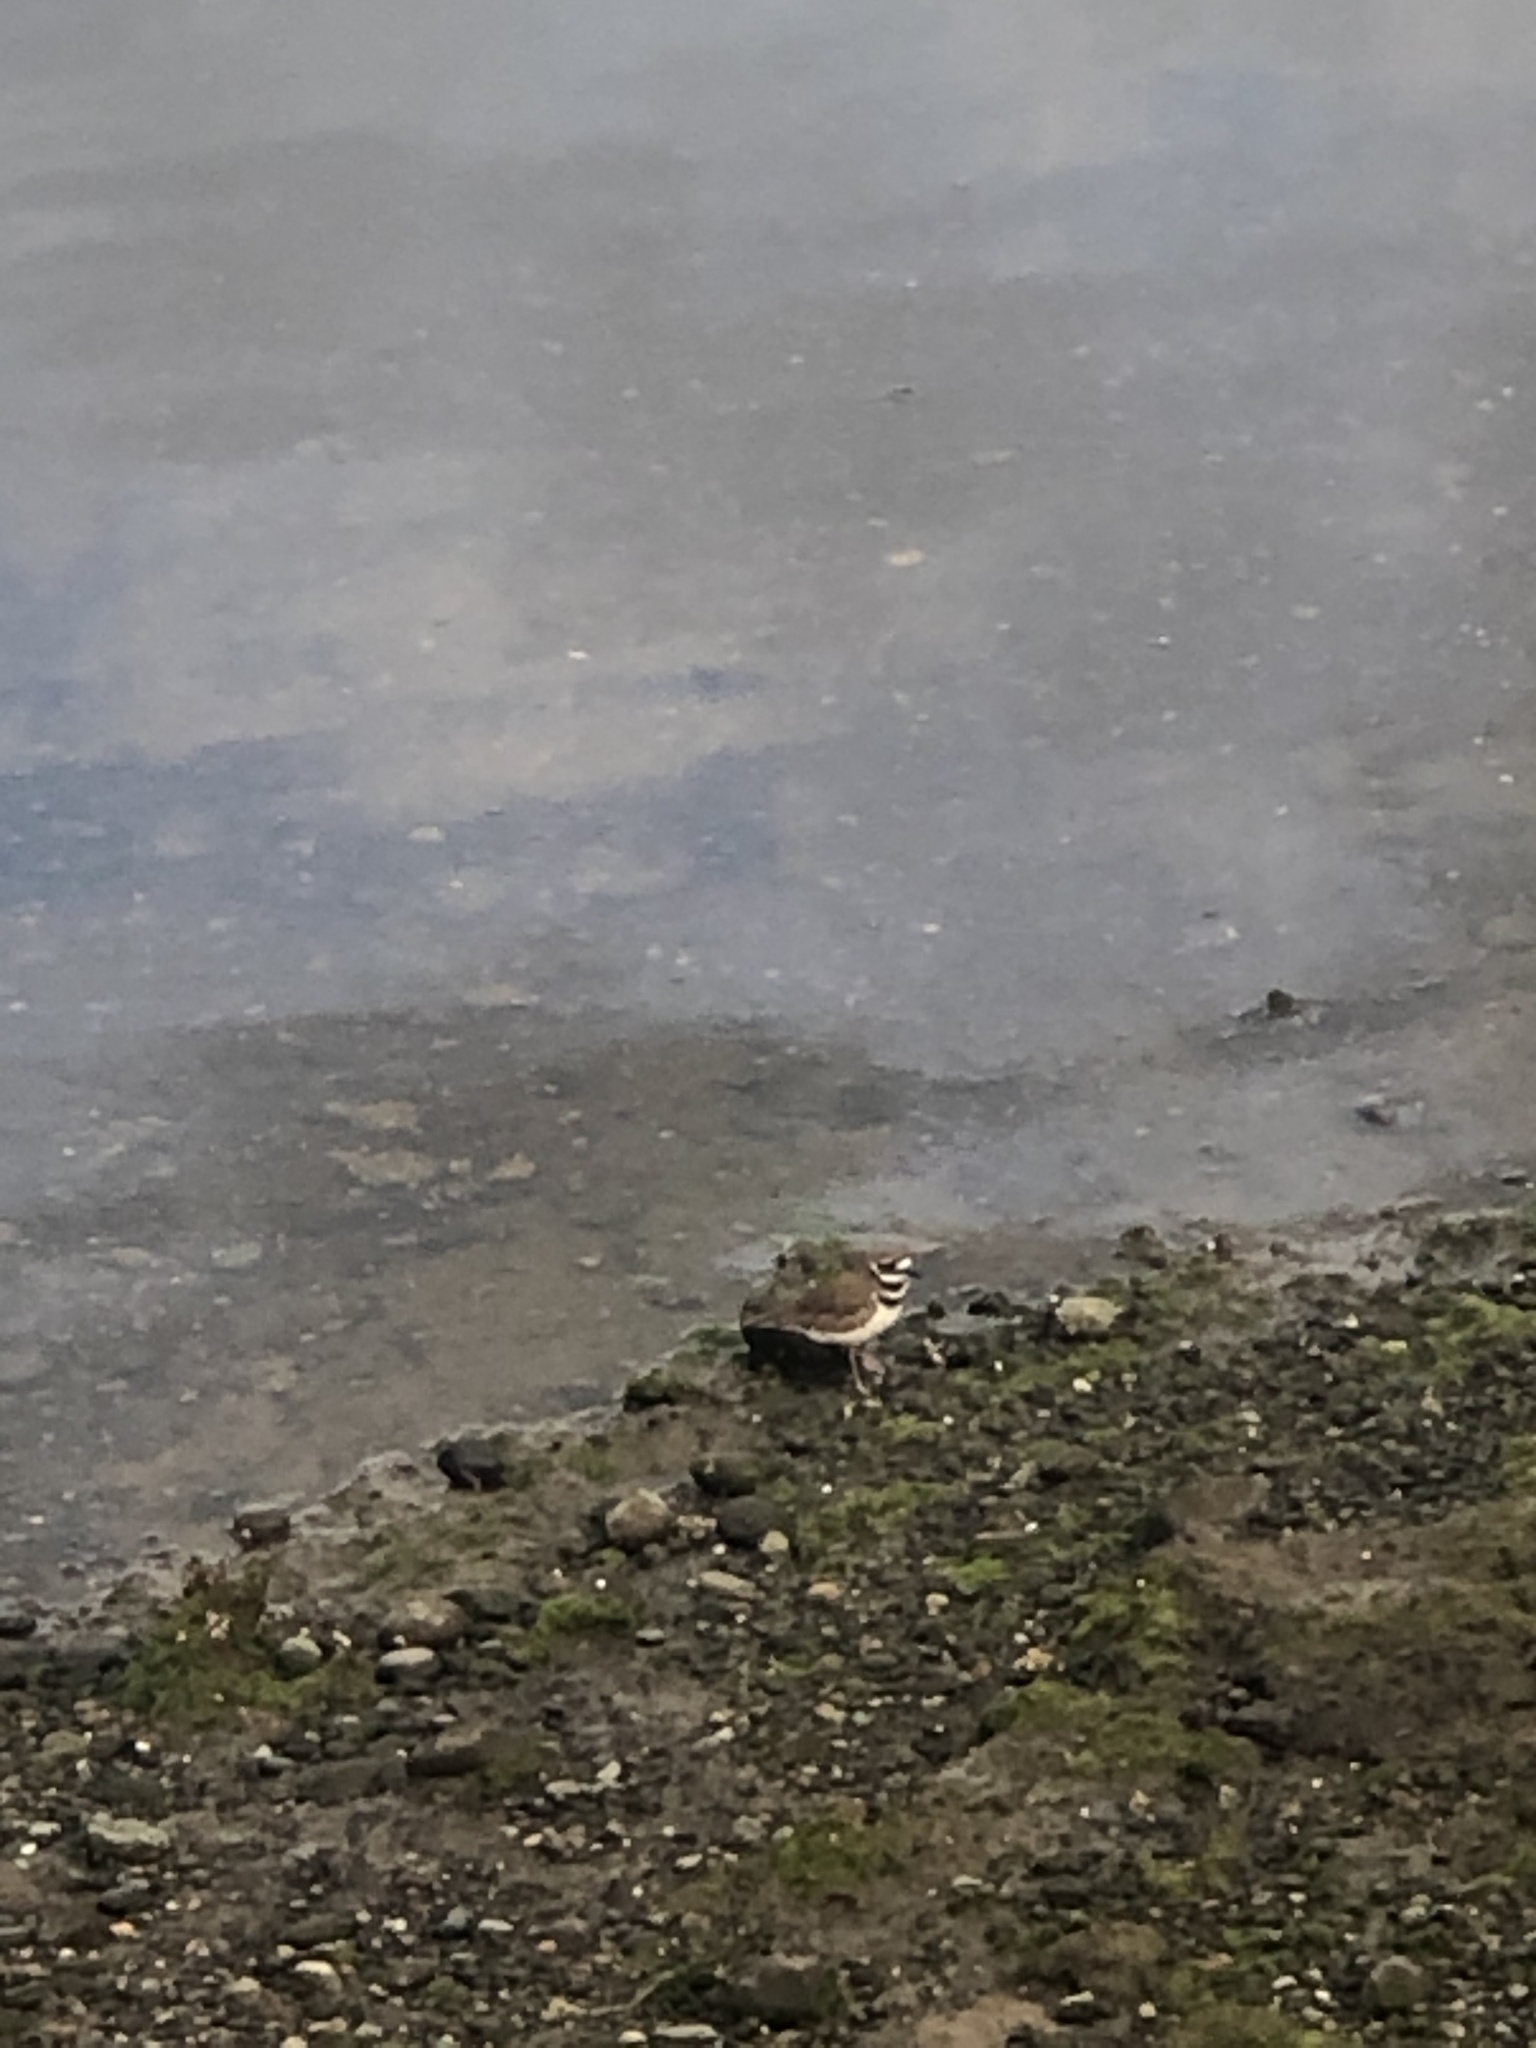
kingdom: Animalia
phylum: Chordata
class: Aves
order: Charadriiformes
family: Charadriidae
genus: Charadrius
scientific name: Charadrius vociferus
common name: Killdeer
